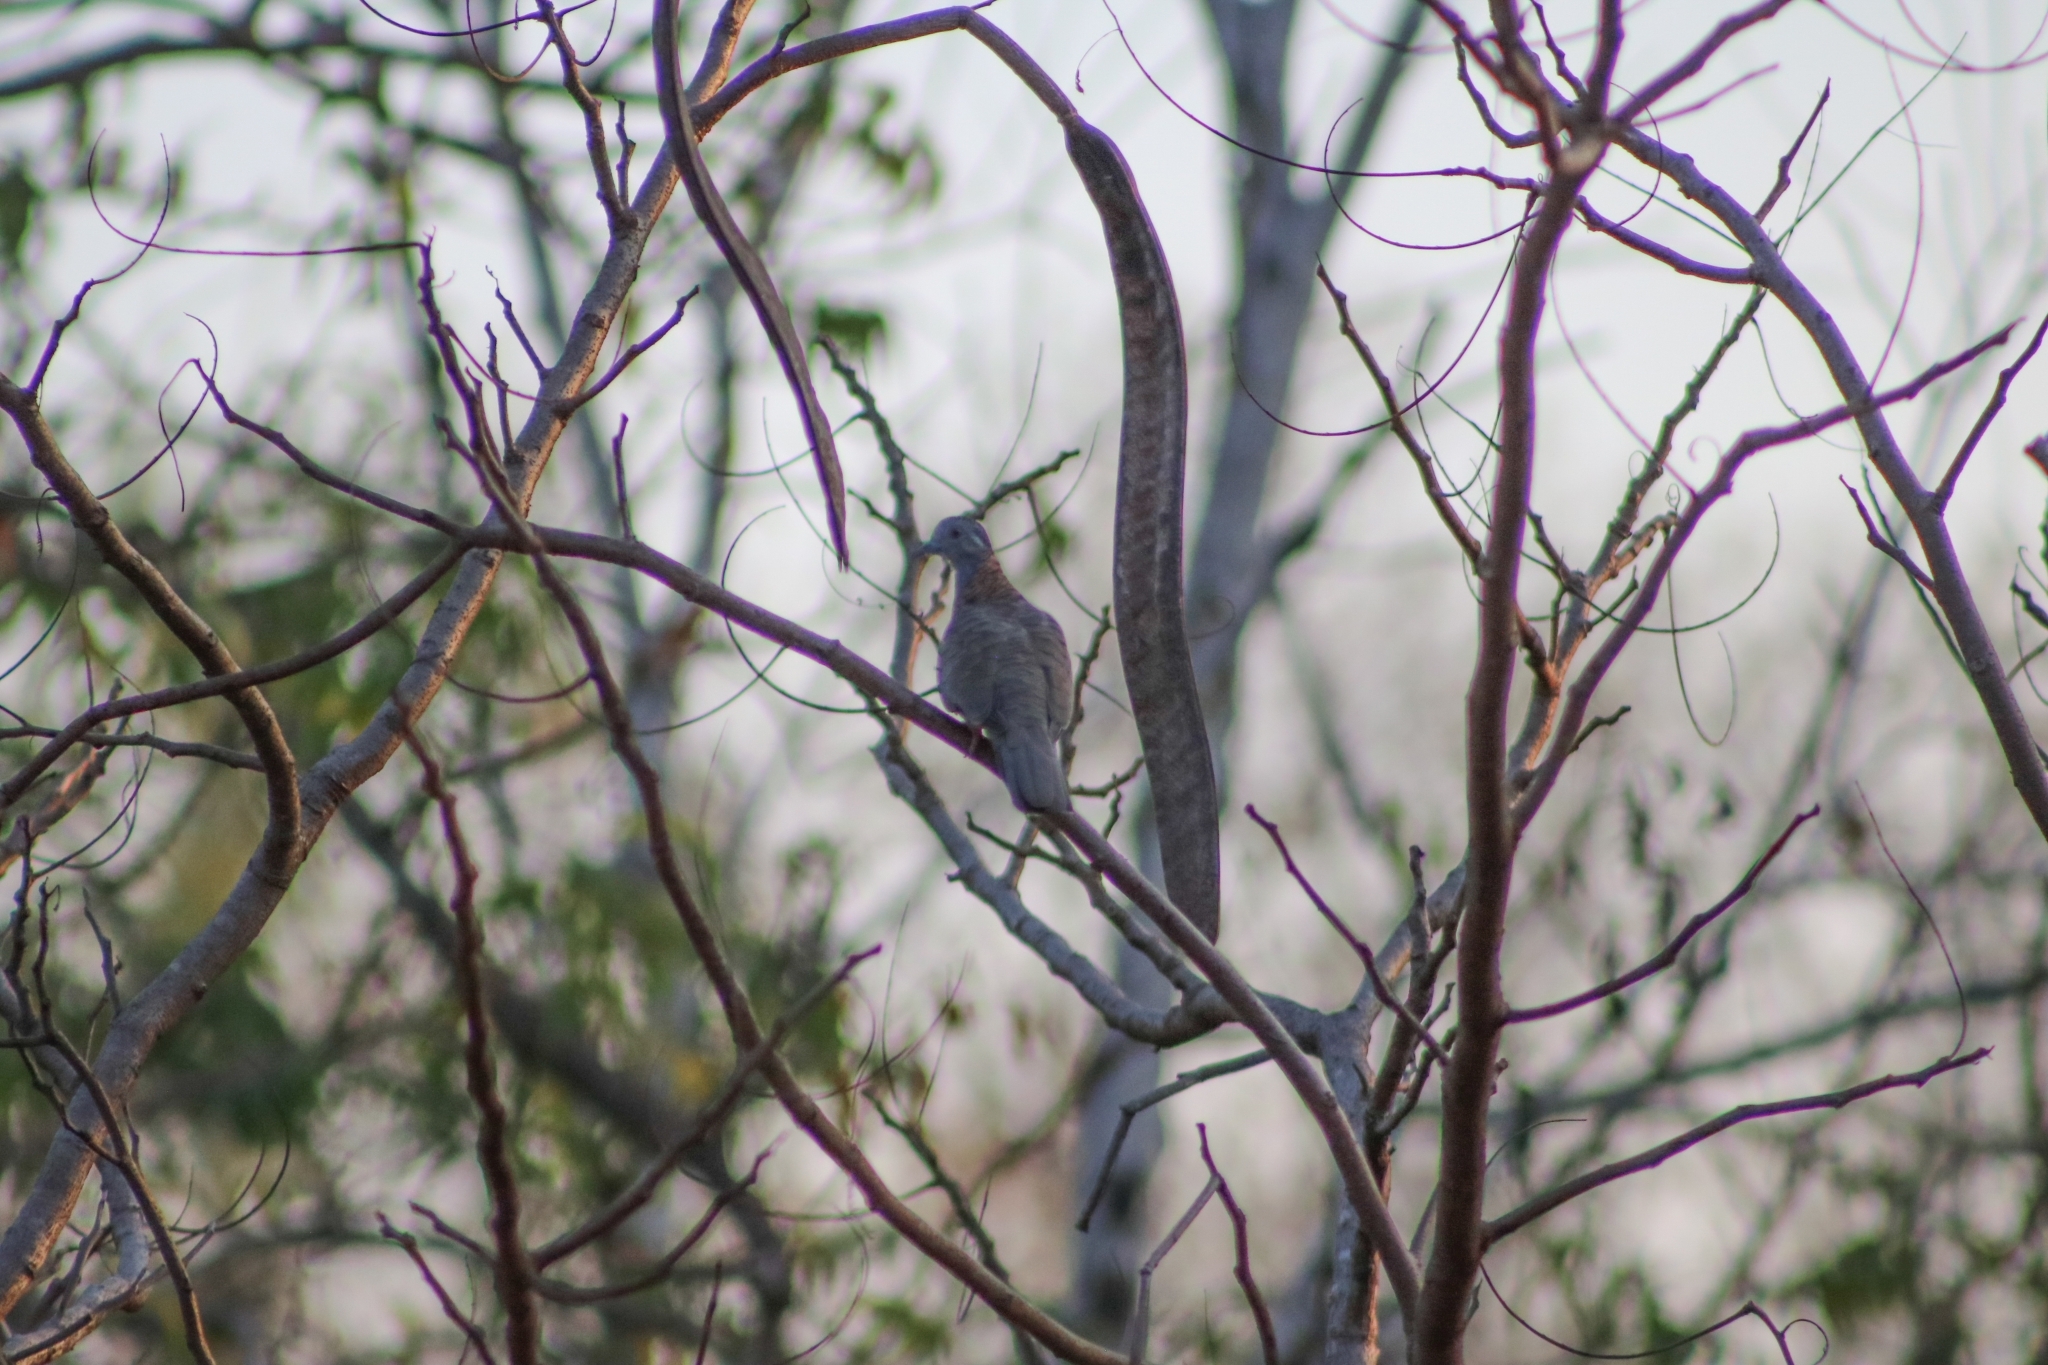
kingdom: Animalia
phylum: Chordata
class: Aves
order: Columbiformes
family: Columbidae
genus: Geopelia
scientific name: Geopelia humeralis
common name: Bar-shouldered dove
